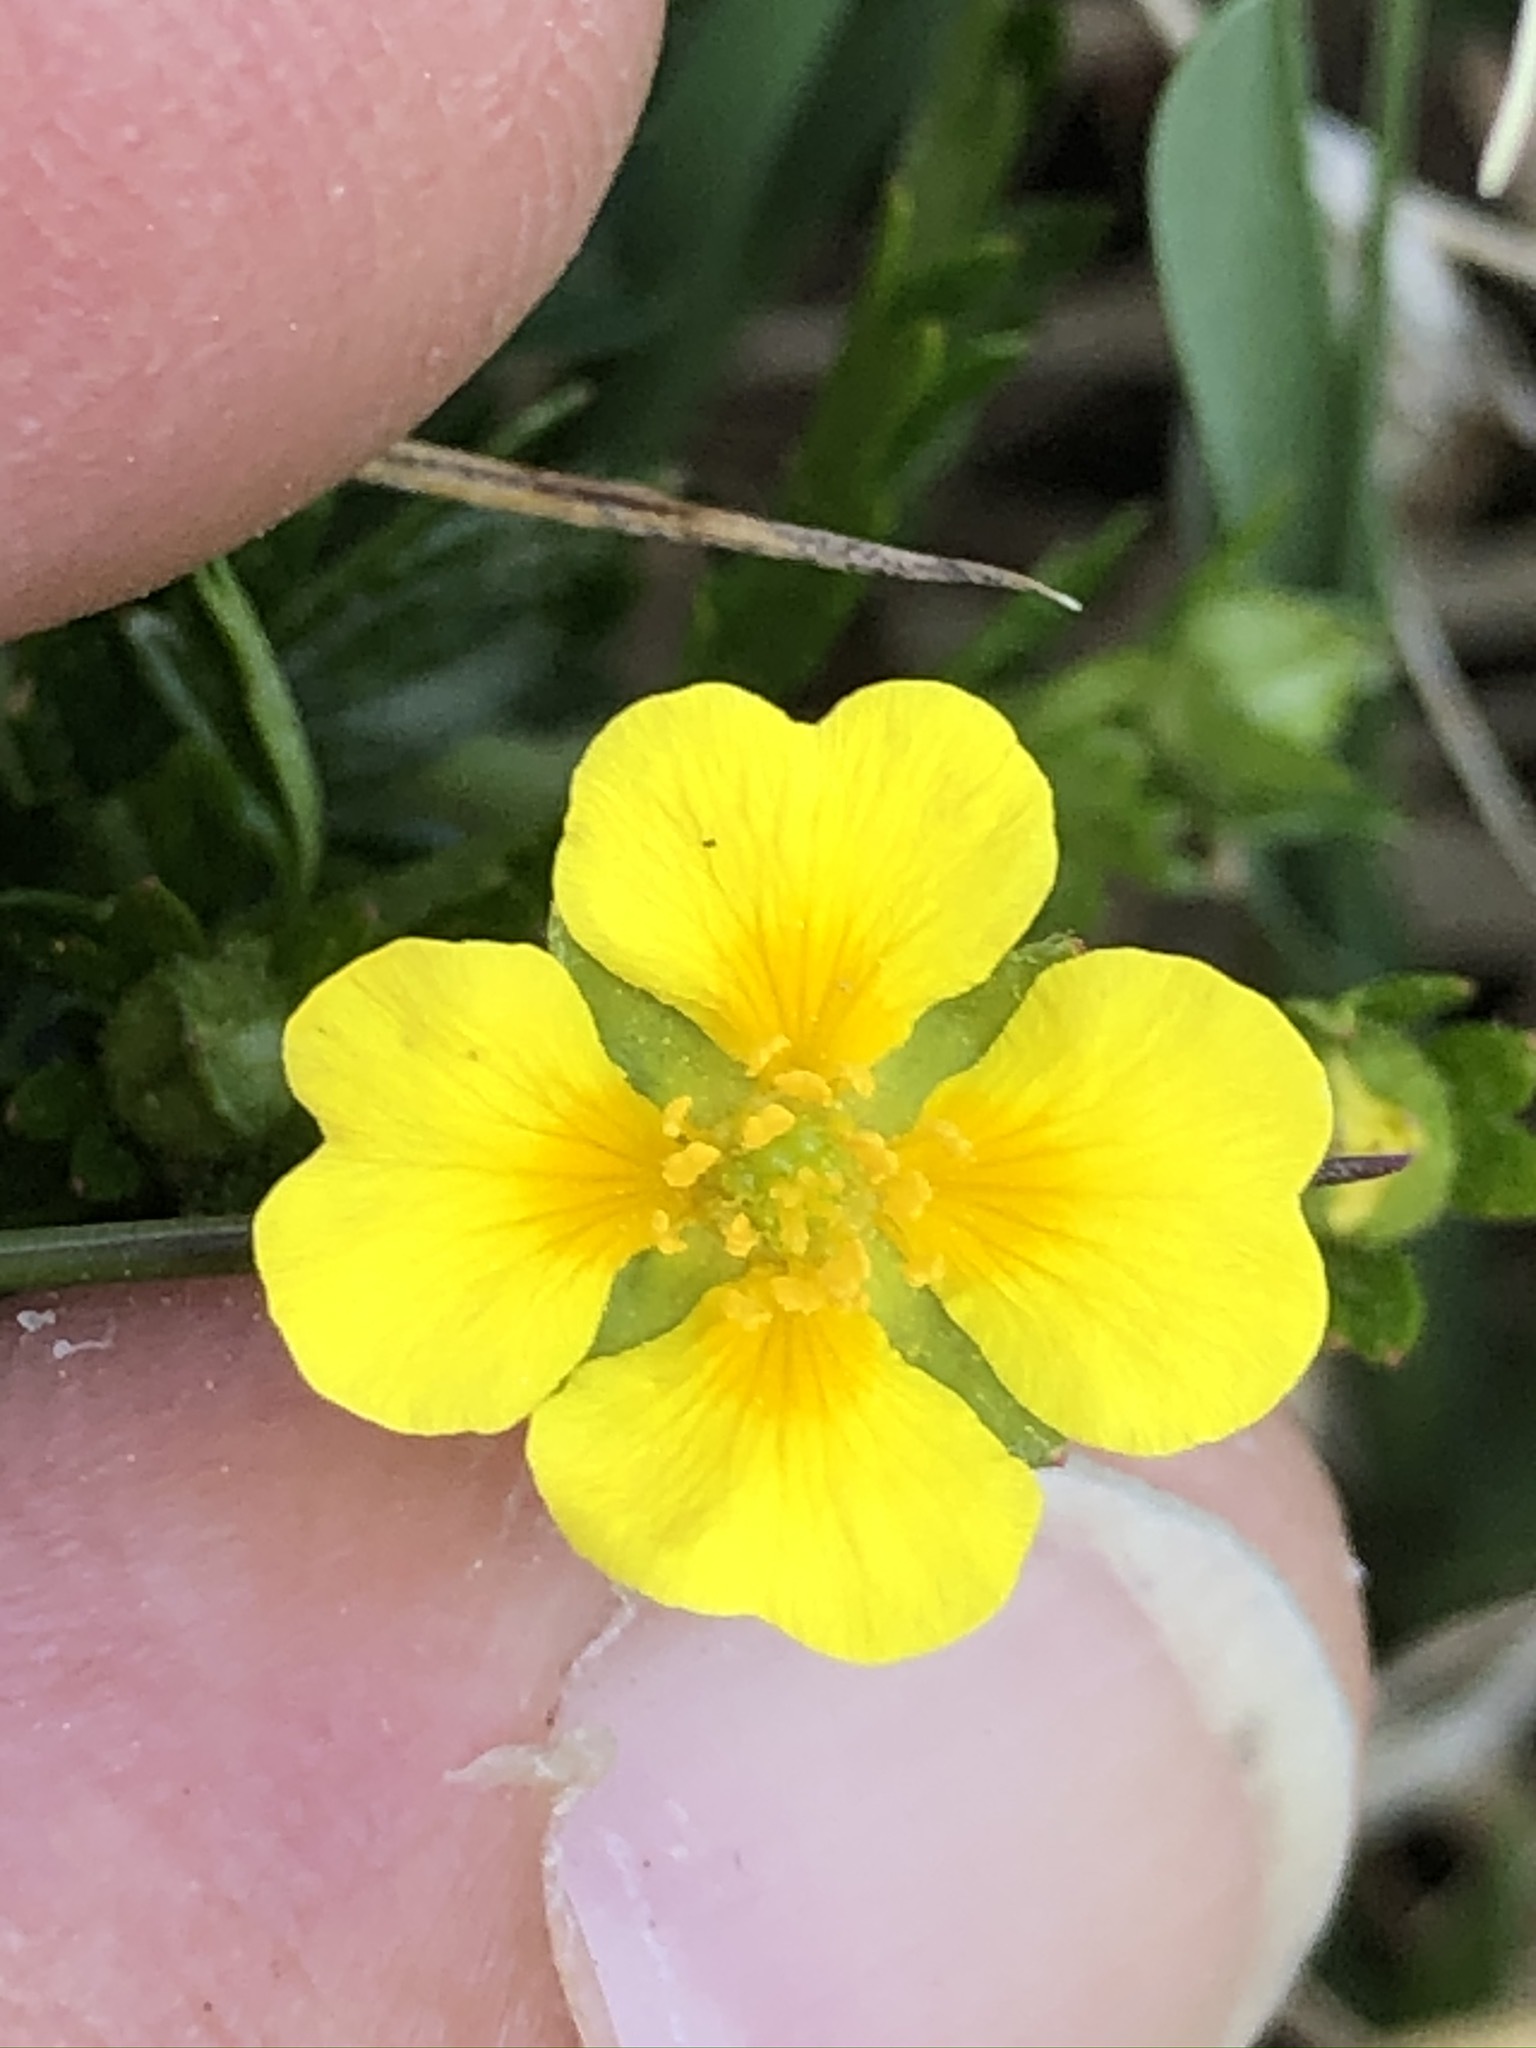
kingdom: Plantae
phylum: Tracheophyta
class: Magnoliopsida
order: Rosales
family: Rosaceae
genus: Potentilla
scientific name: Potentilla erecta
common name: Tormentil
